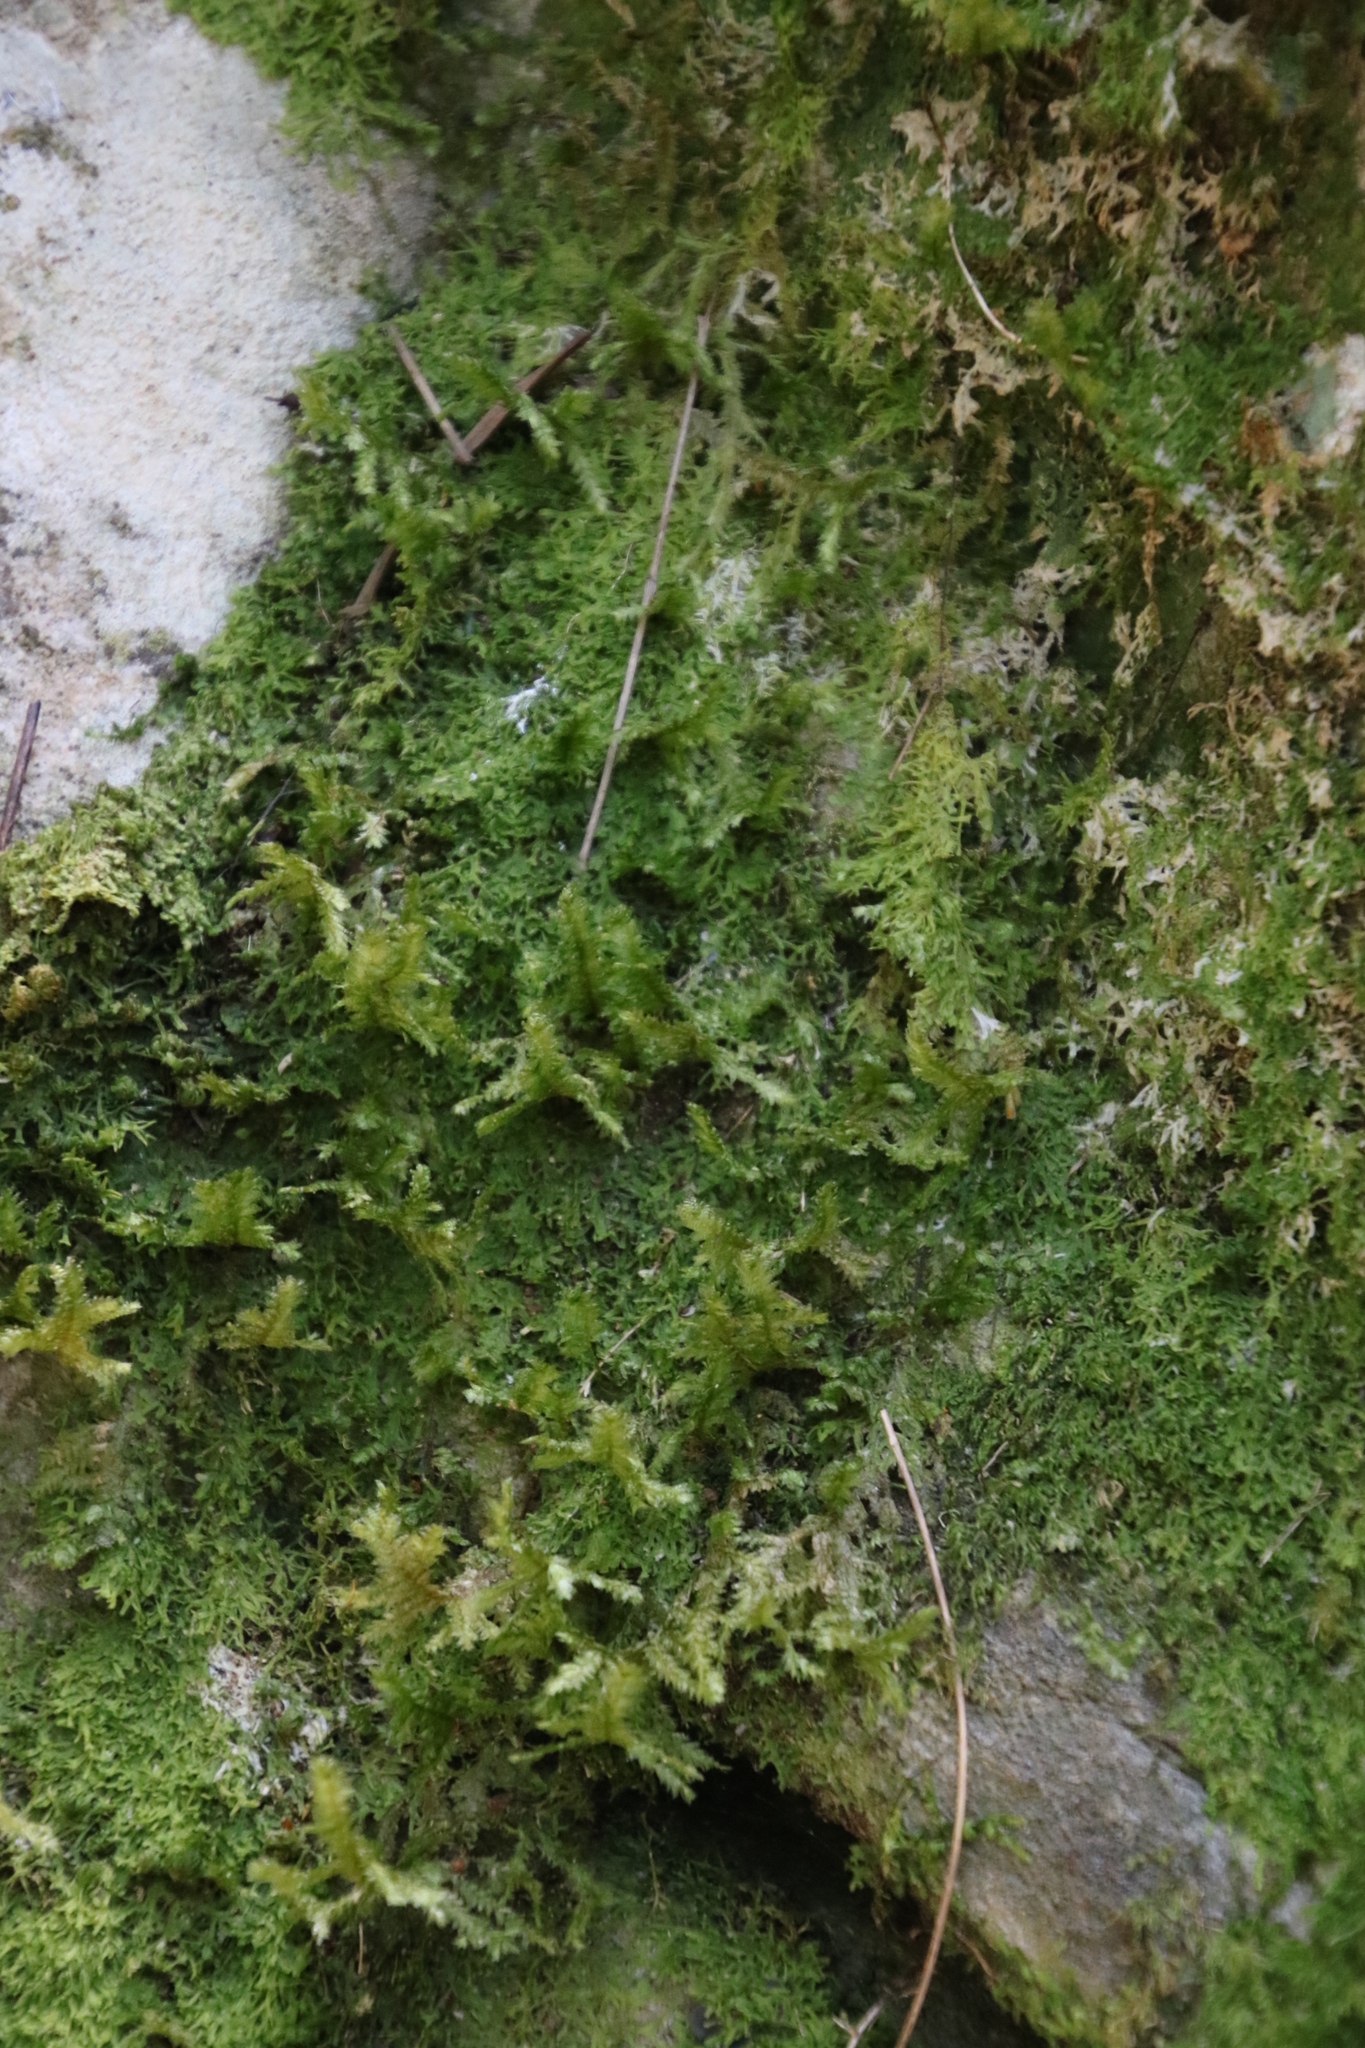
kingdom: Plantae
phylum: Bryophyta
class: Bryopsida
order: Hypnales
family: Neckeraceae
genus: Alleniella
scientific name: Alleniella ehrenbergii
